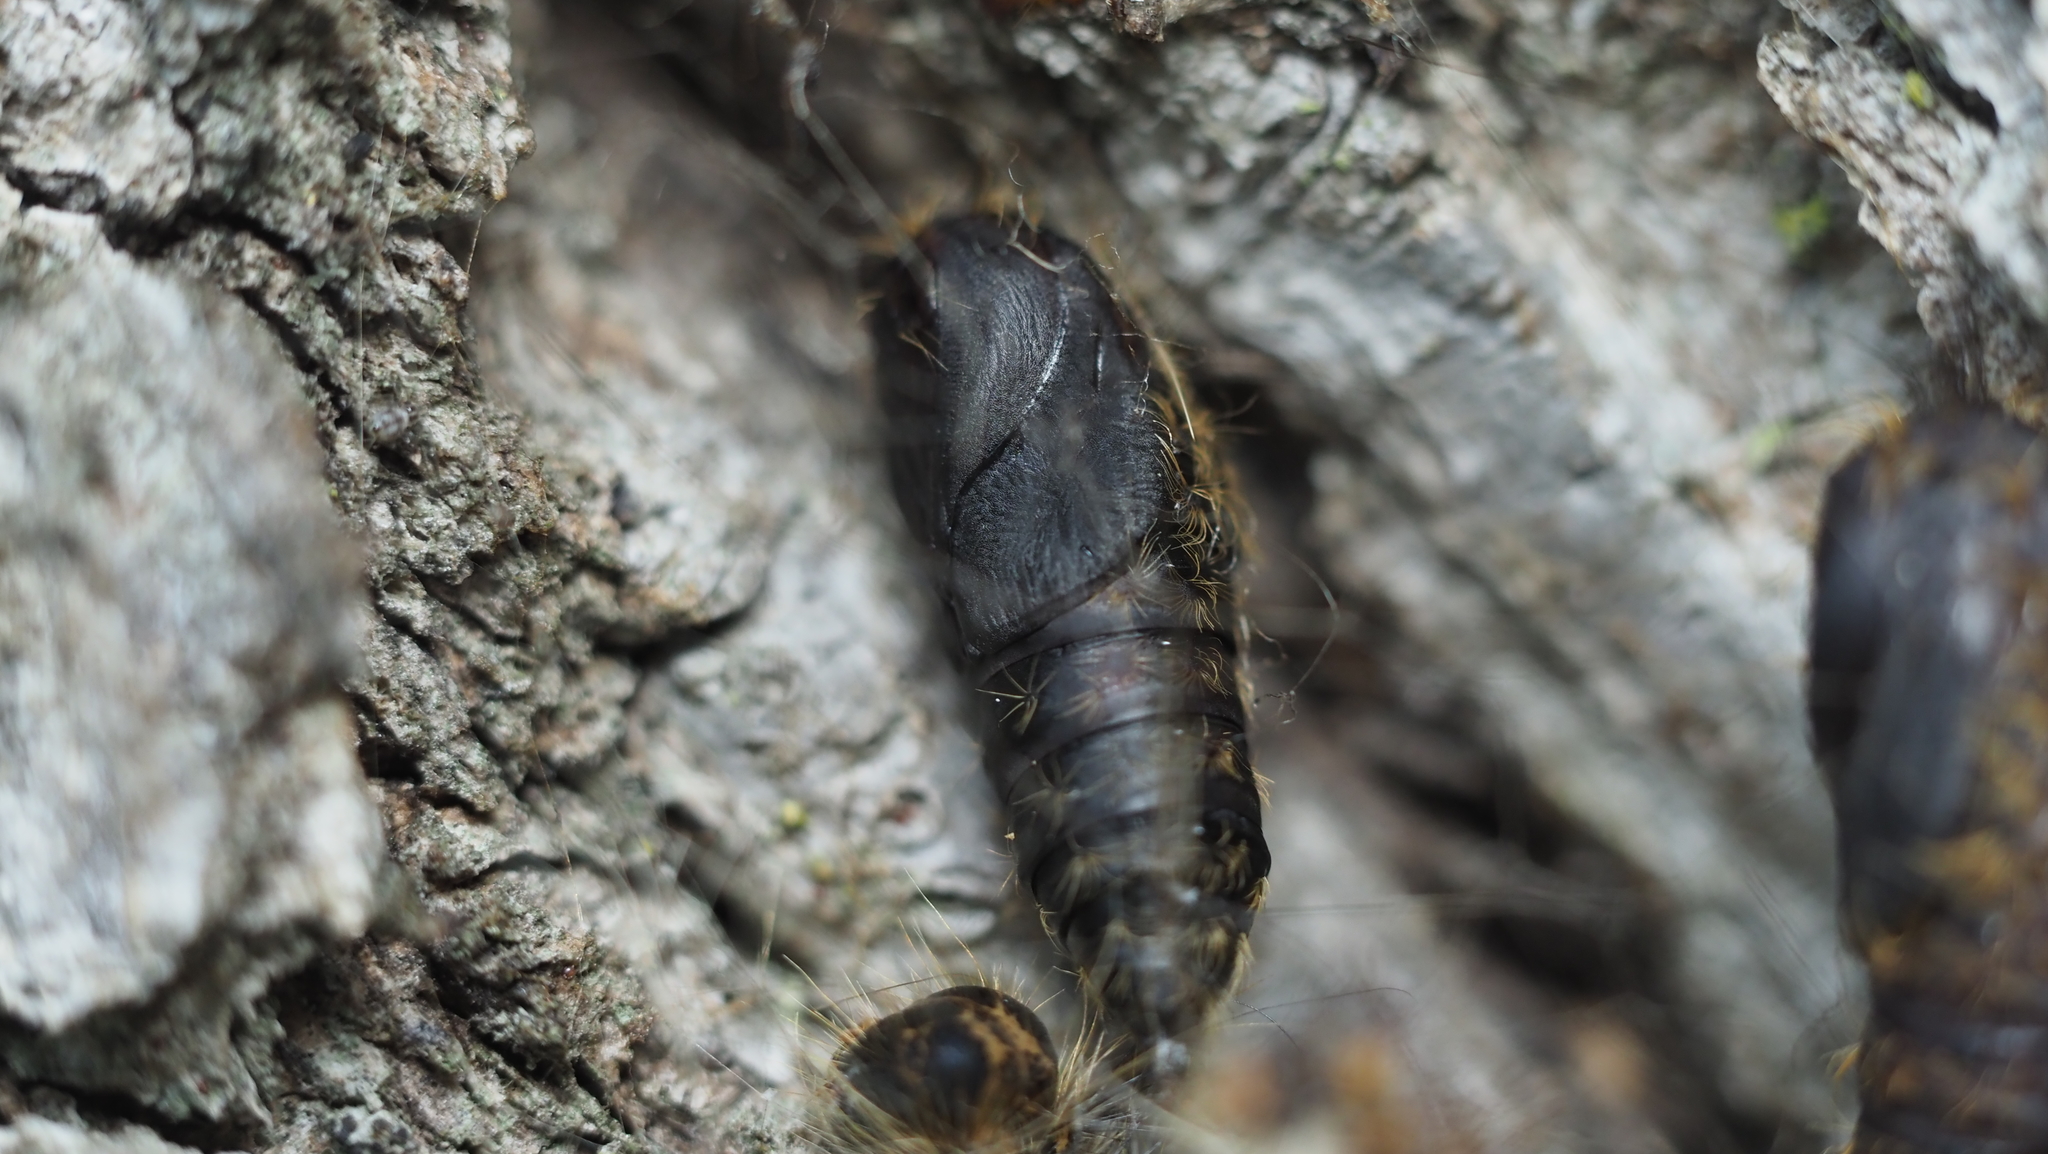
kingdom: Animalia
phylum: Arthropoda
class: Insecta
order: Lepidoptera
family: Erebidae
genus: Lymantria
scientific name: Lymantria dispar
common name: Gypsy moth
